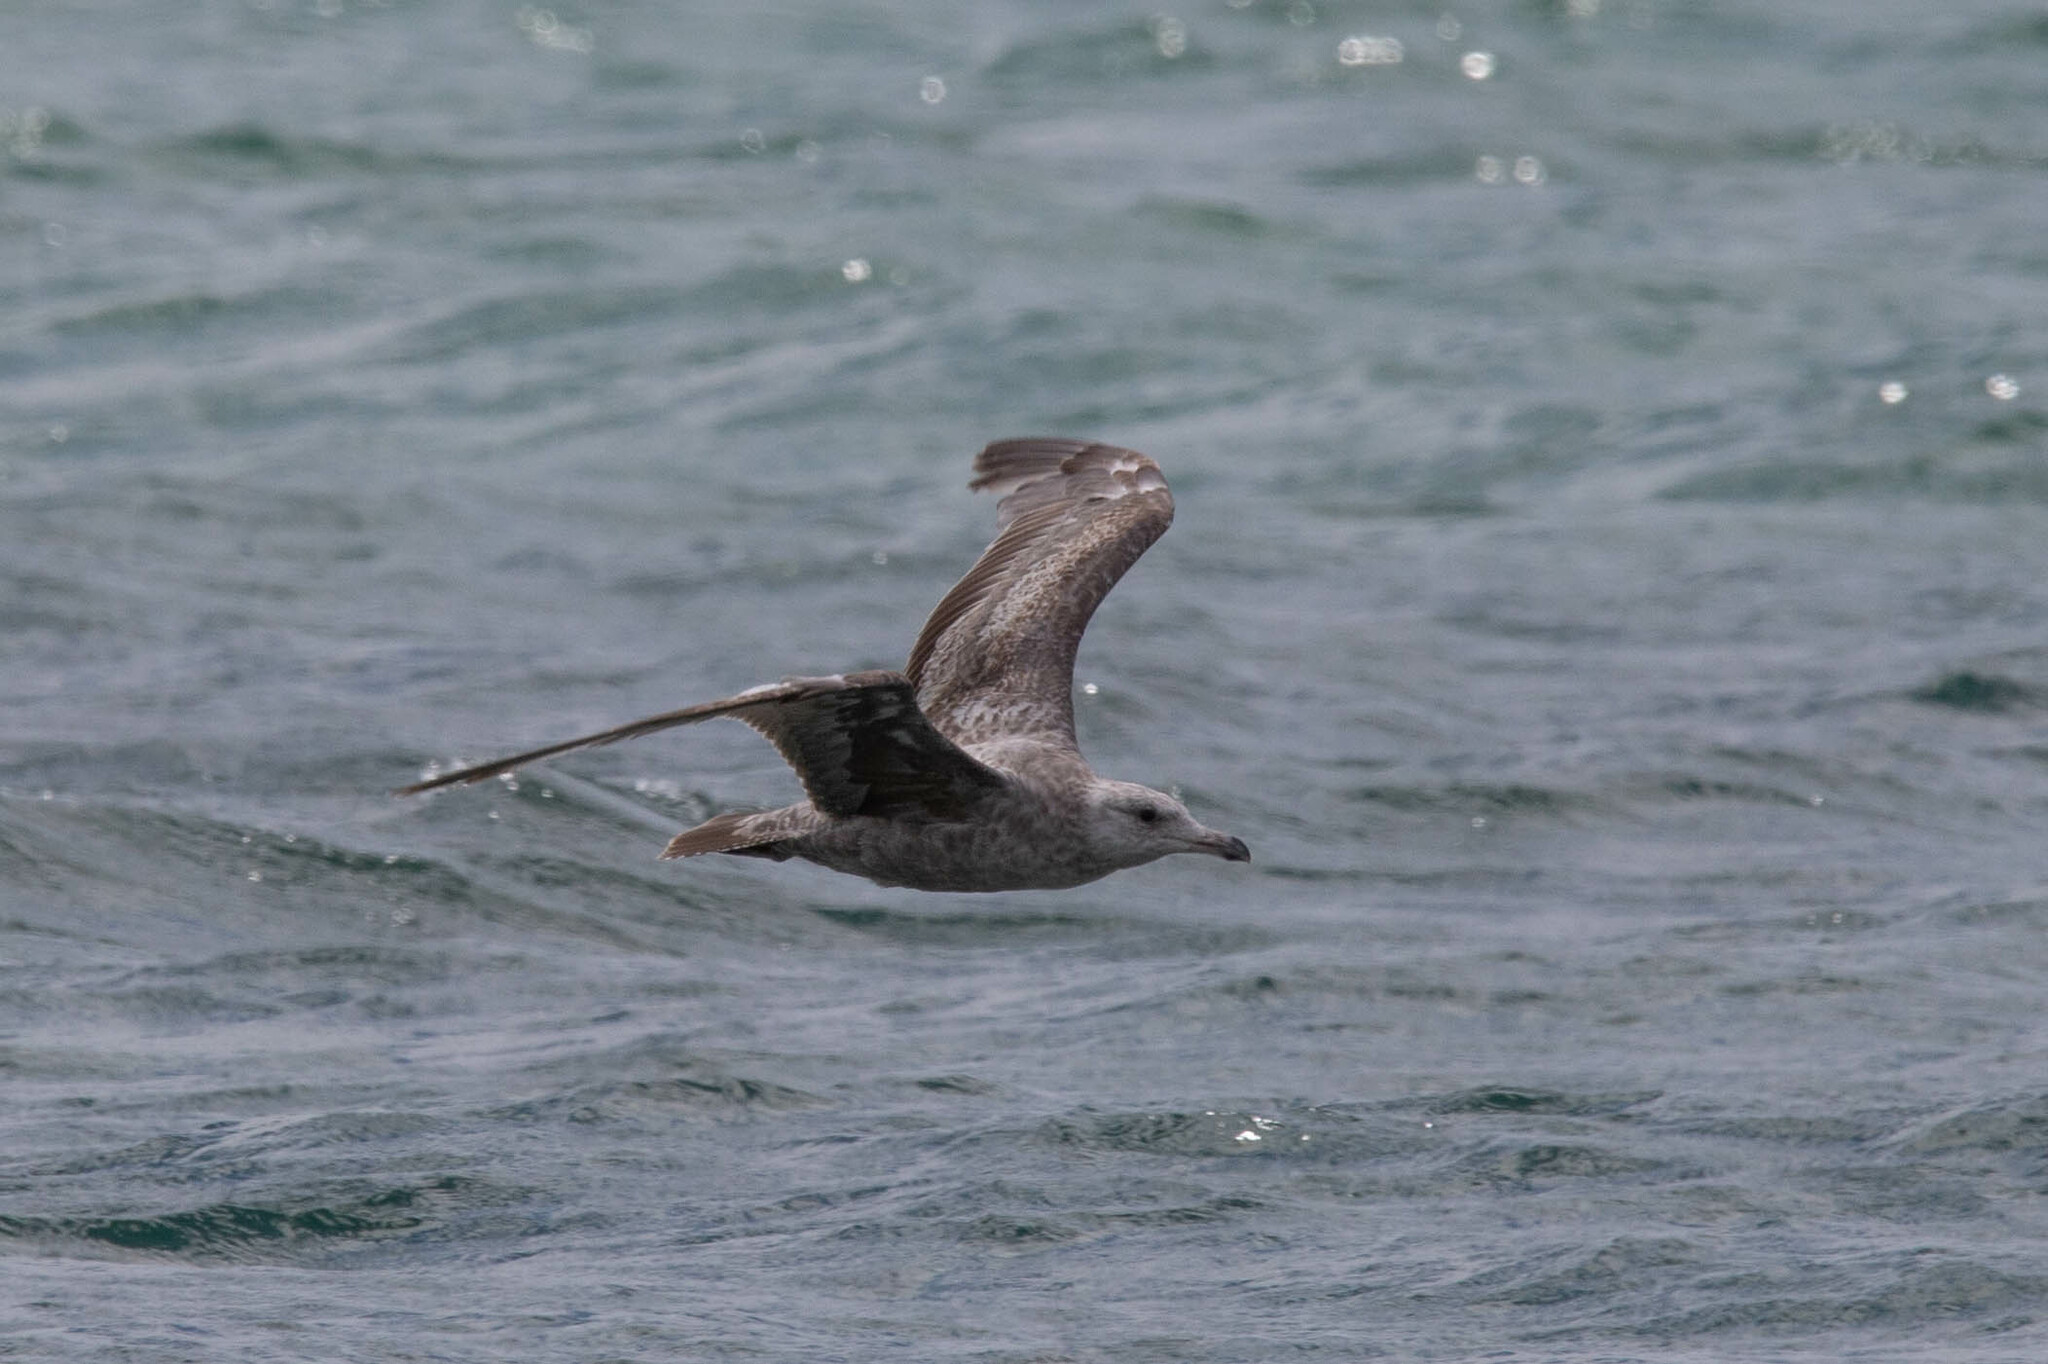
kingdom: Animalia
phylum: Chordata
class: Aves
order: Charadriiformes
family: Laridae
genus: Larus
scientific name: Larus argentatus
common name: Herring gull
